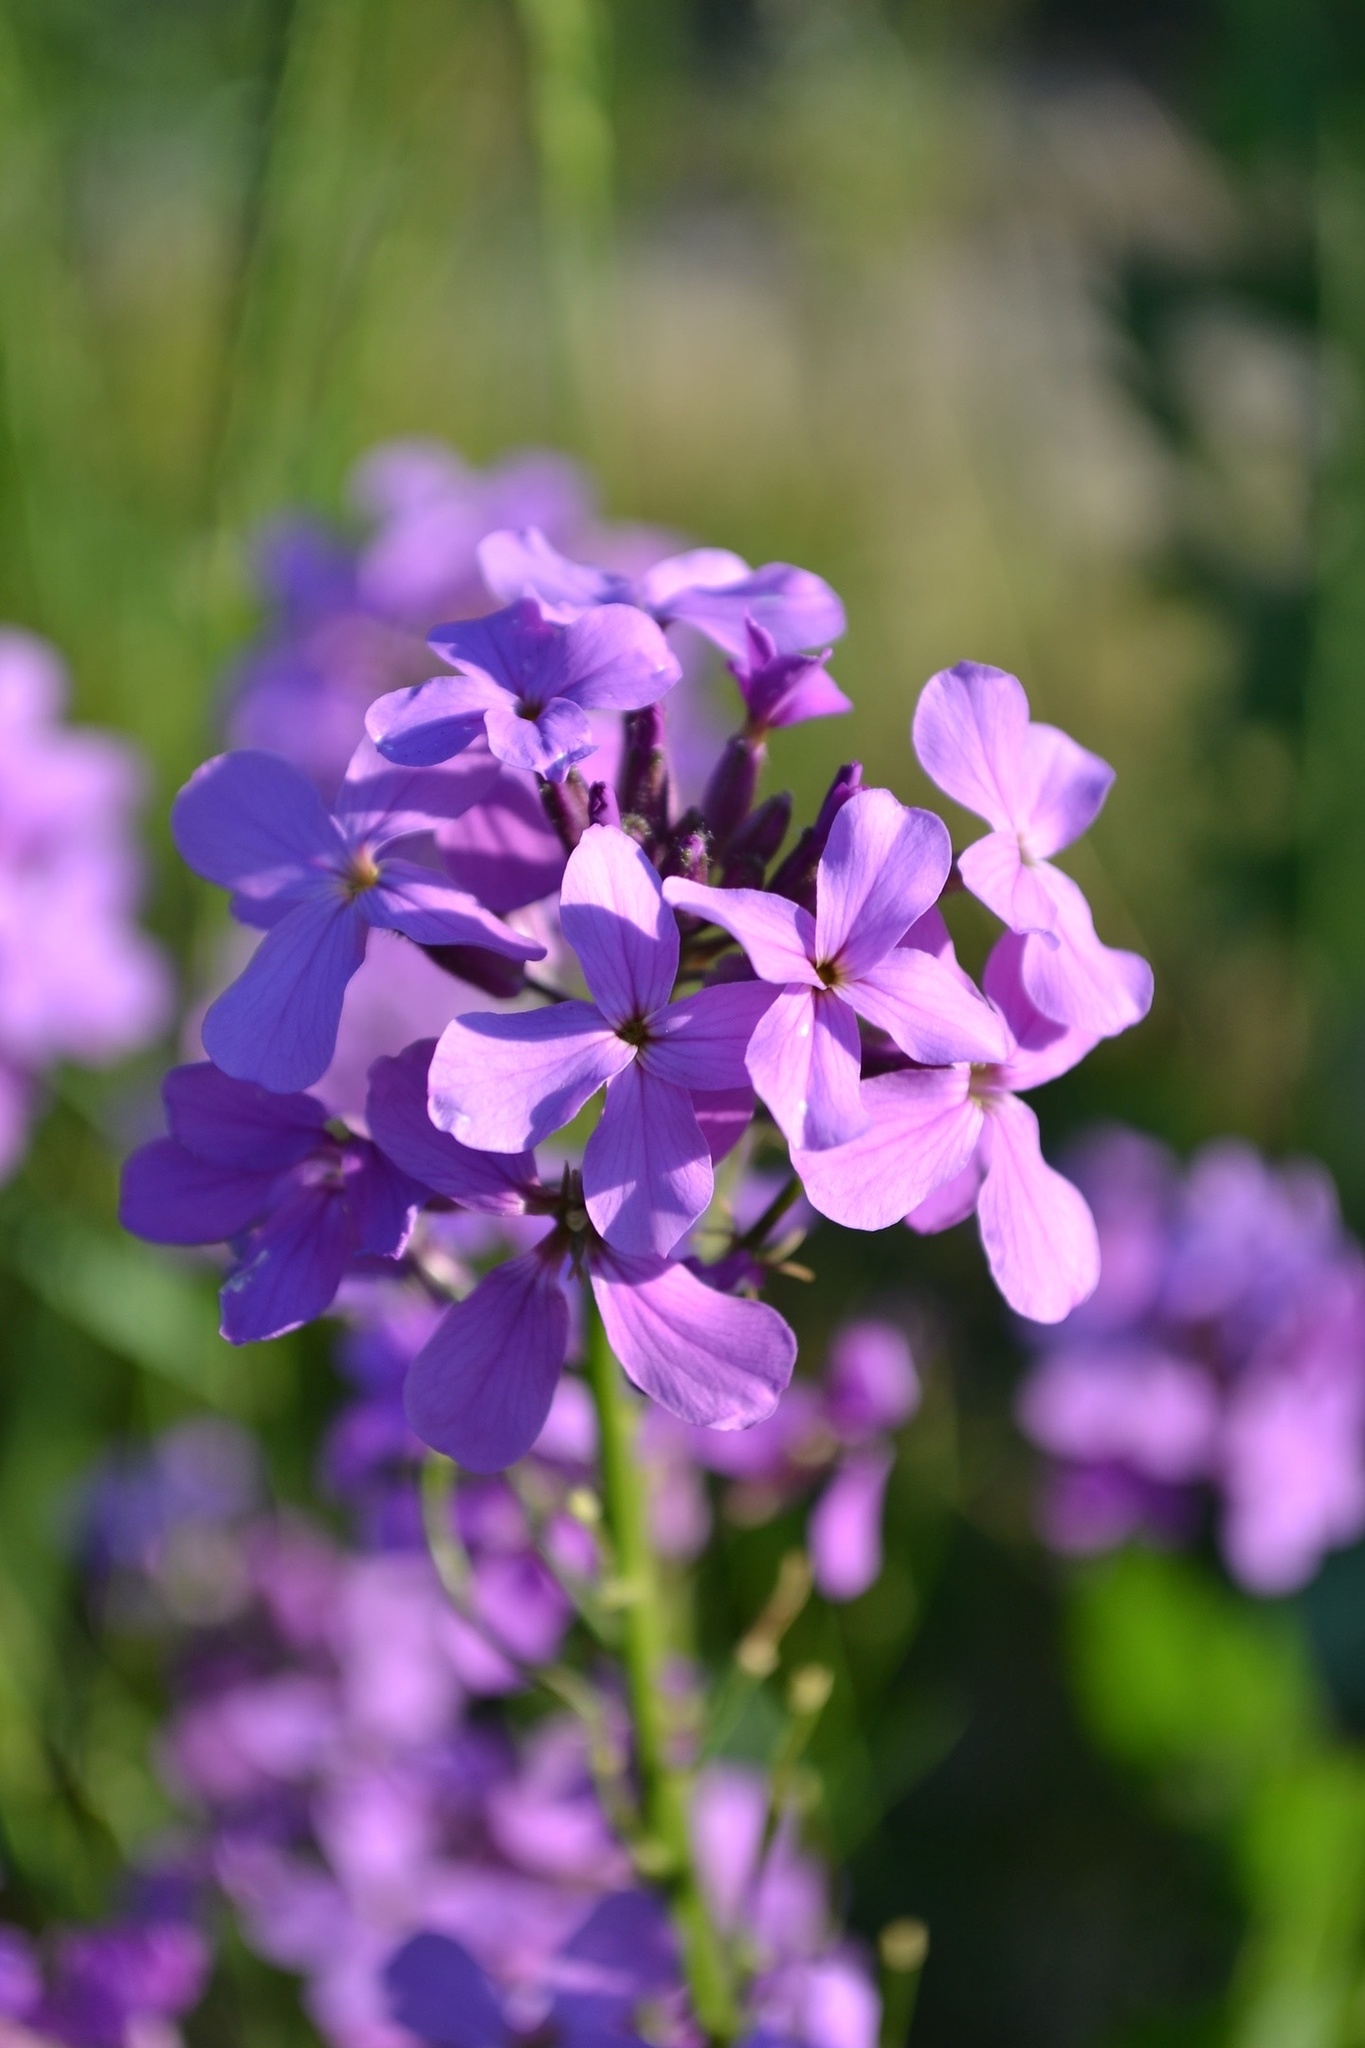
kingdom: Plantae
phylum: Tracheophyta
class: Magnoliopsida
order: Brassicales
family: Brassicaceae
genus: Hesperis
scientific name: Hesperis matronalis
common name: Dame's-violet
